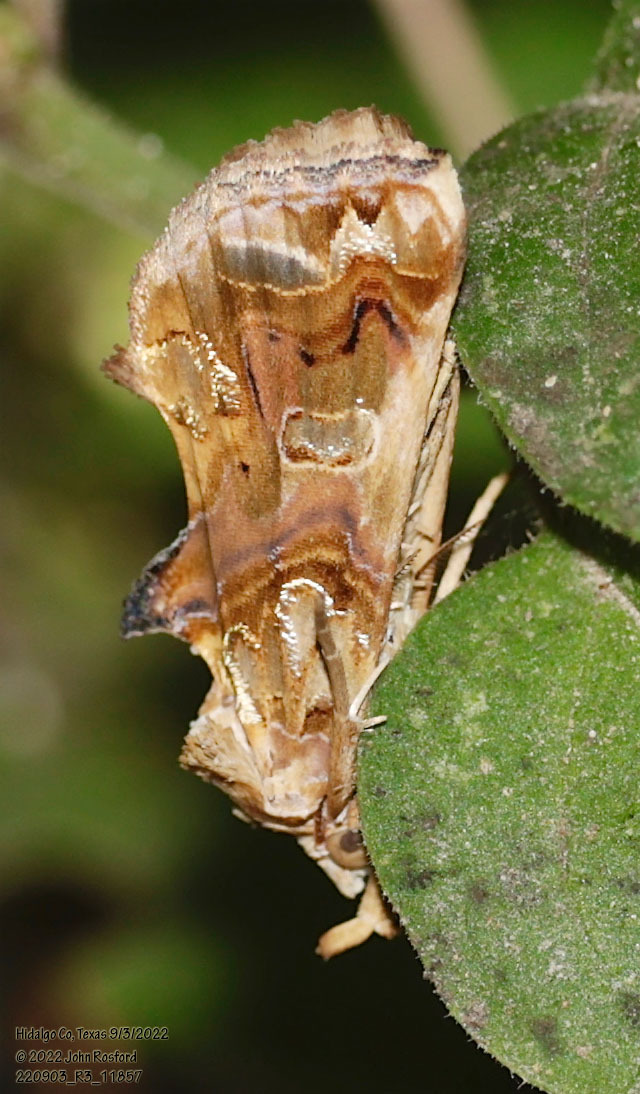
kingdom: Animalia
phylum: Arthropoda
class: Insecta
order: Lepidoptera
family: Erebidae
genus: Plusiodonta
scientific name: Plusiodonta compressipalpis
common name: Moonseed moth
